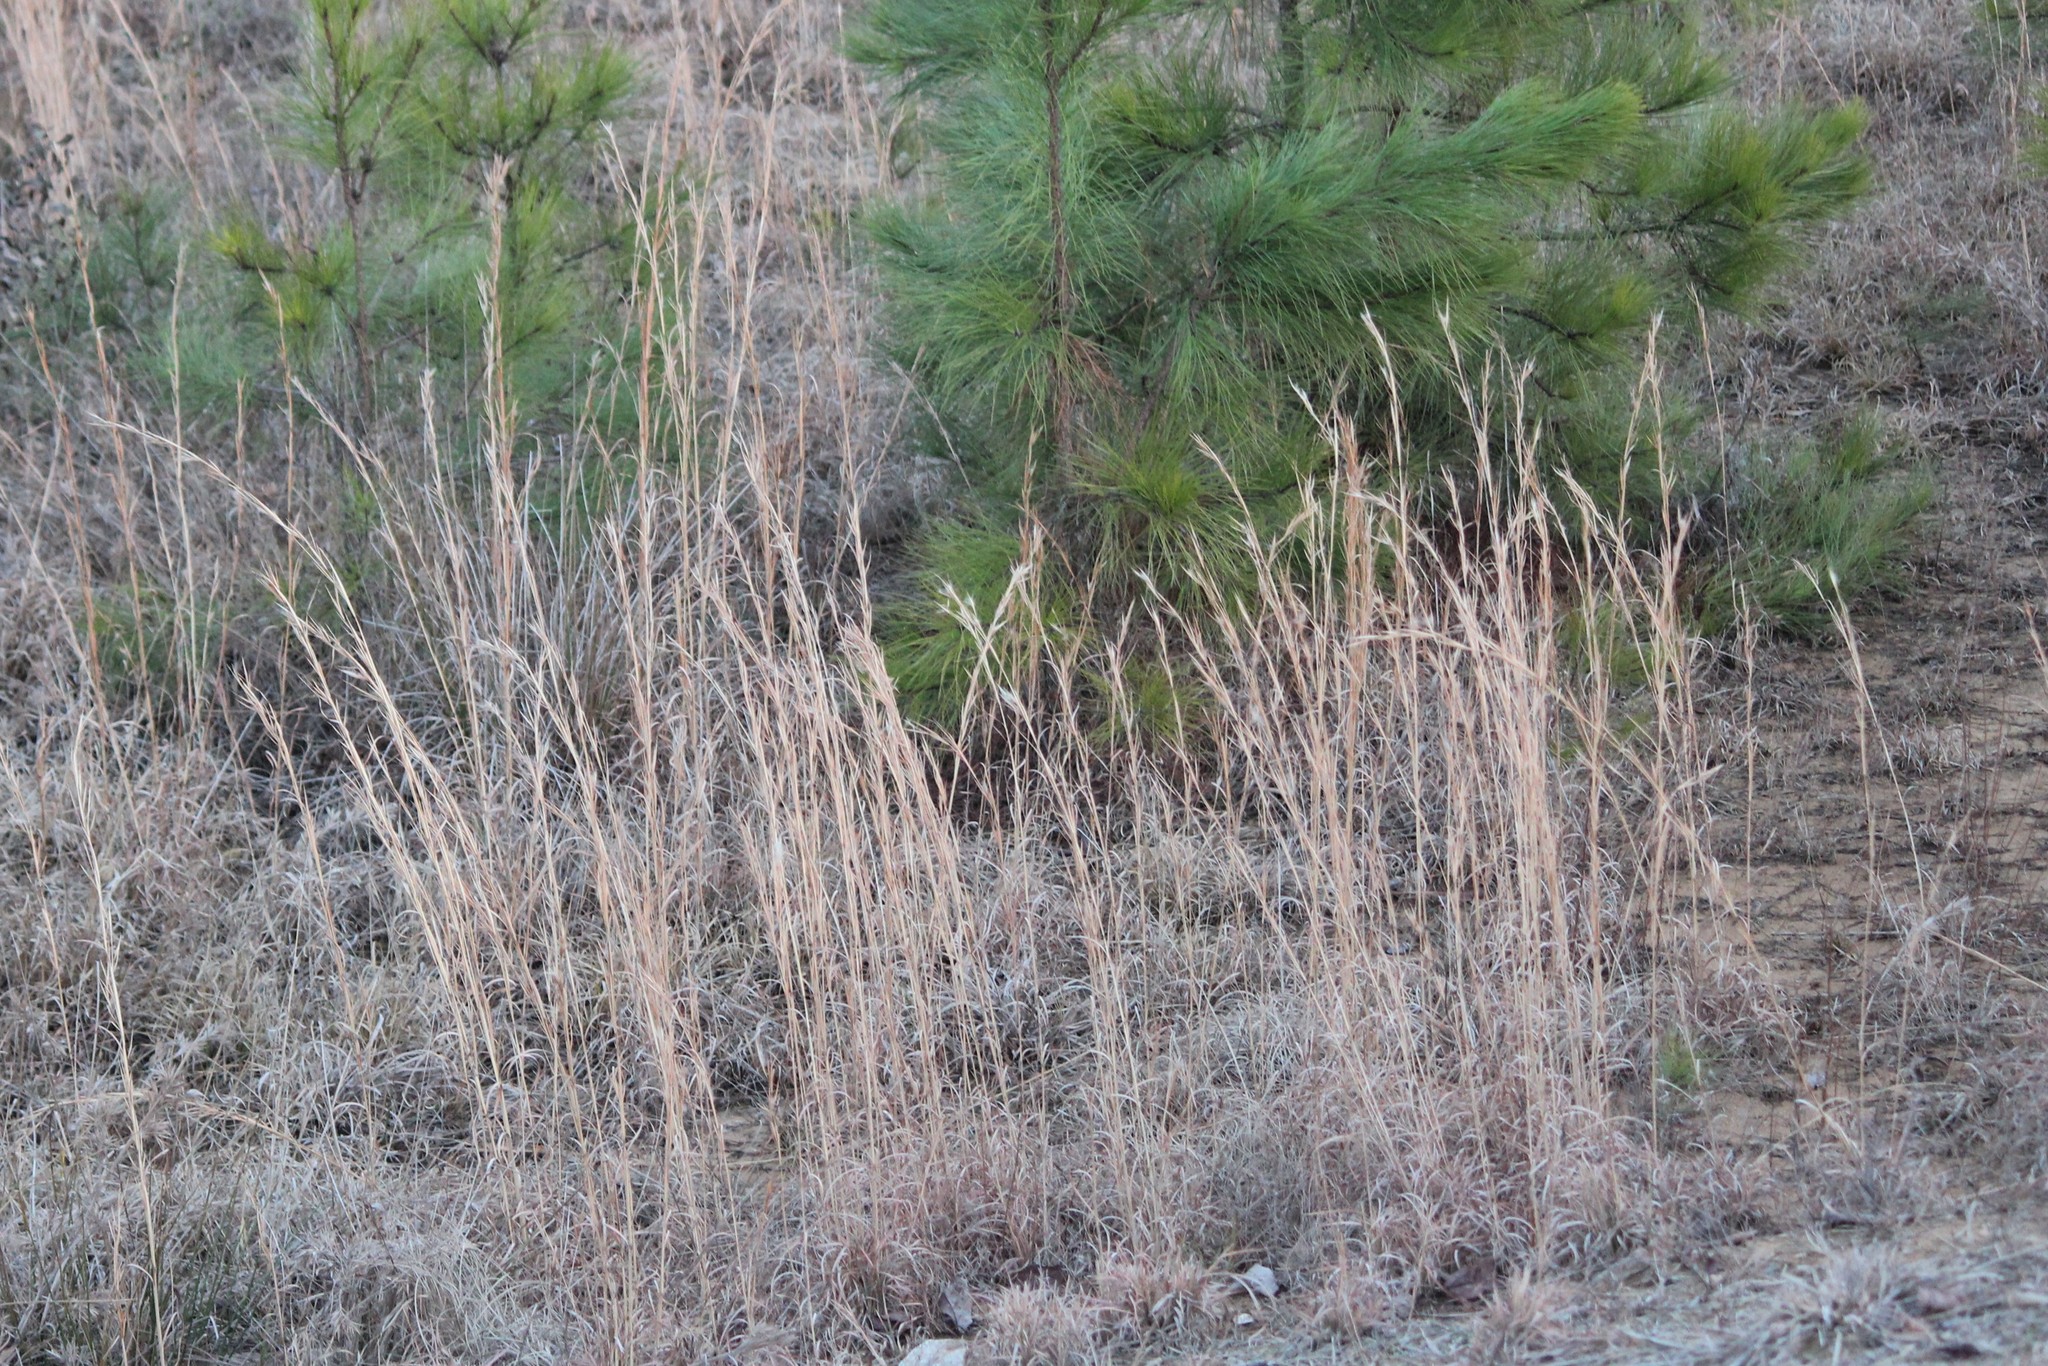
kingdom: Plantae
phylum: Tracheophyta
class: Liliopsida
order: Poales
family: Poaceae
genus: Andropogon
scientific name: Andropogon virginicus
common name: Broomsedge bluestem
